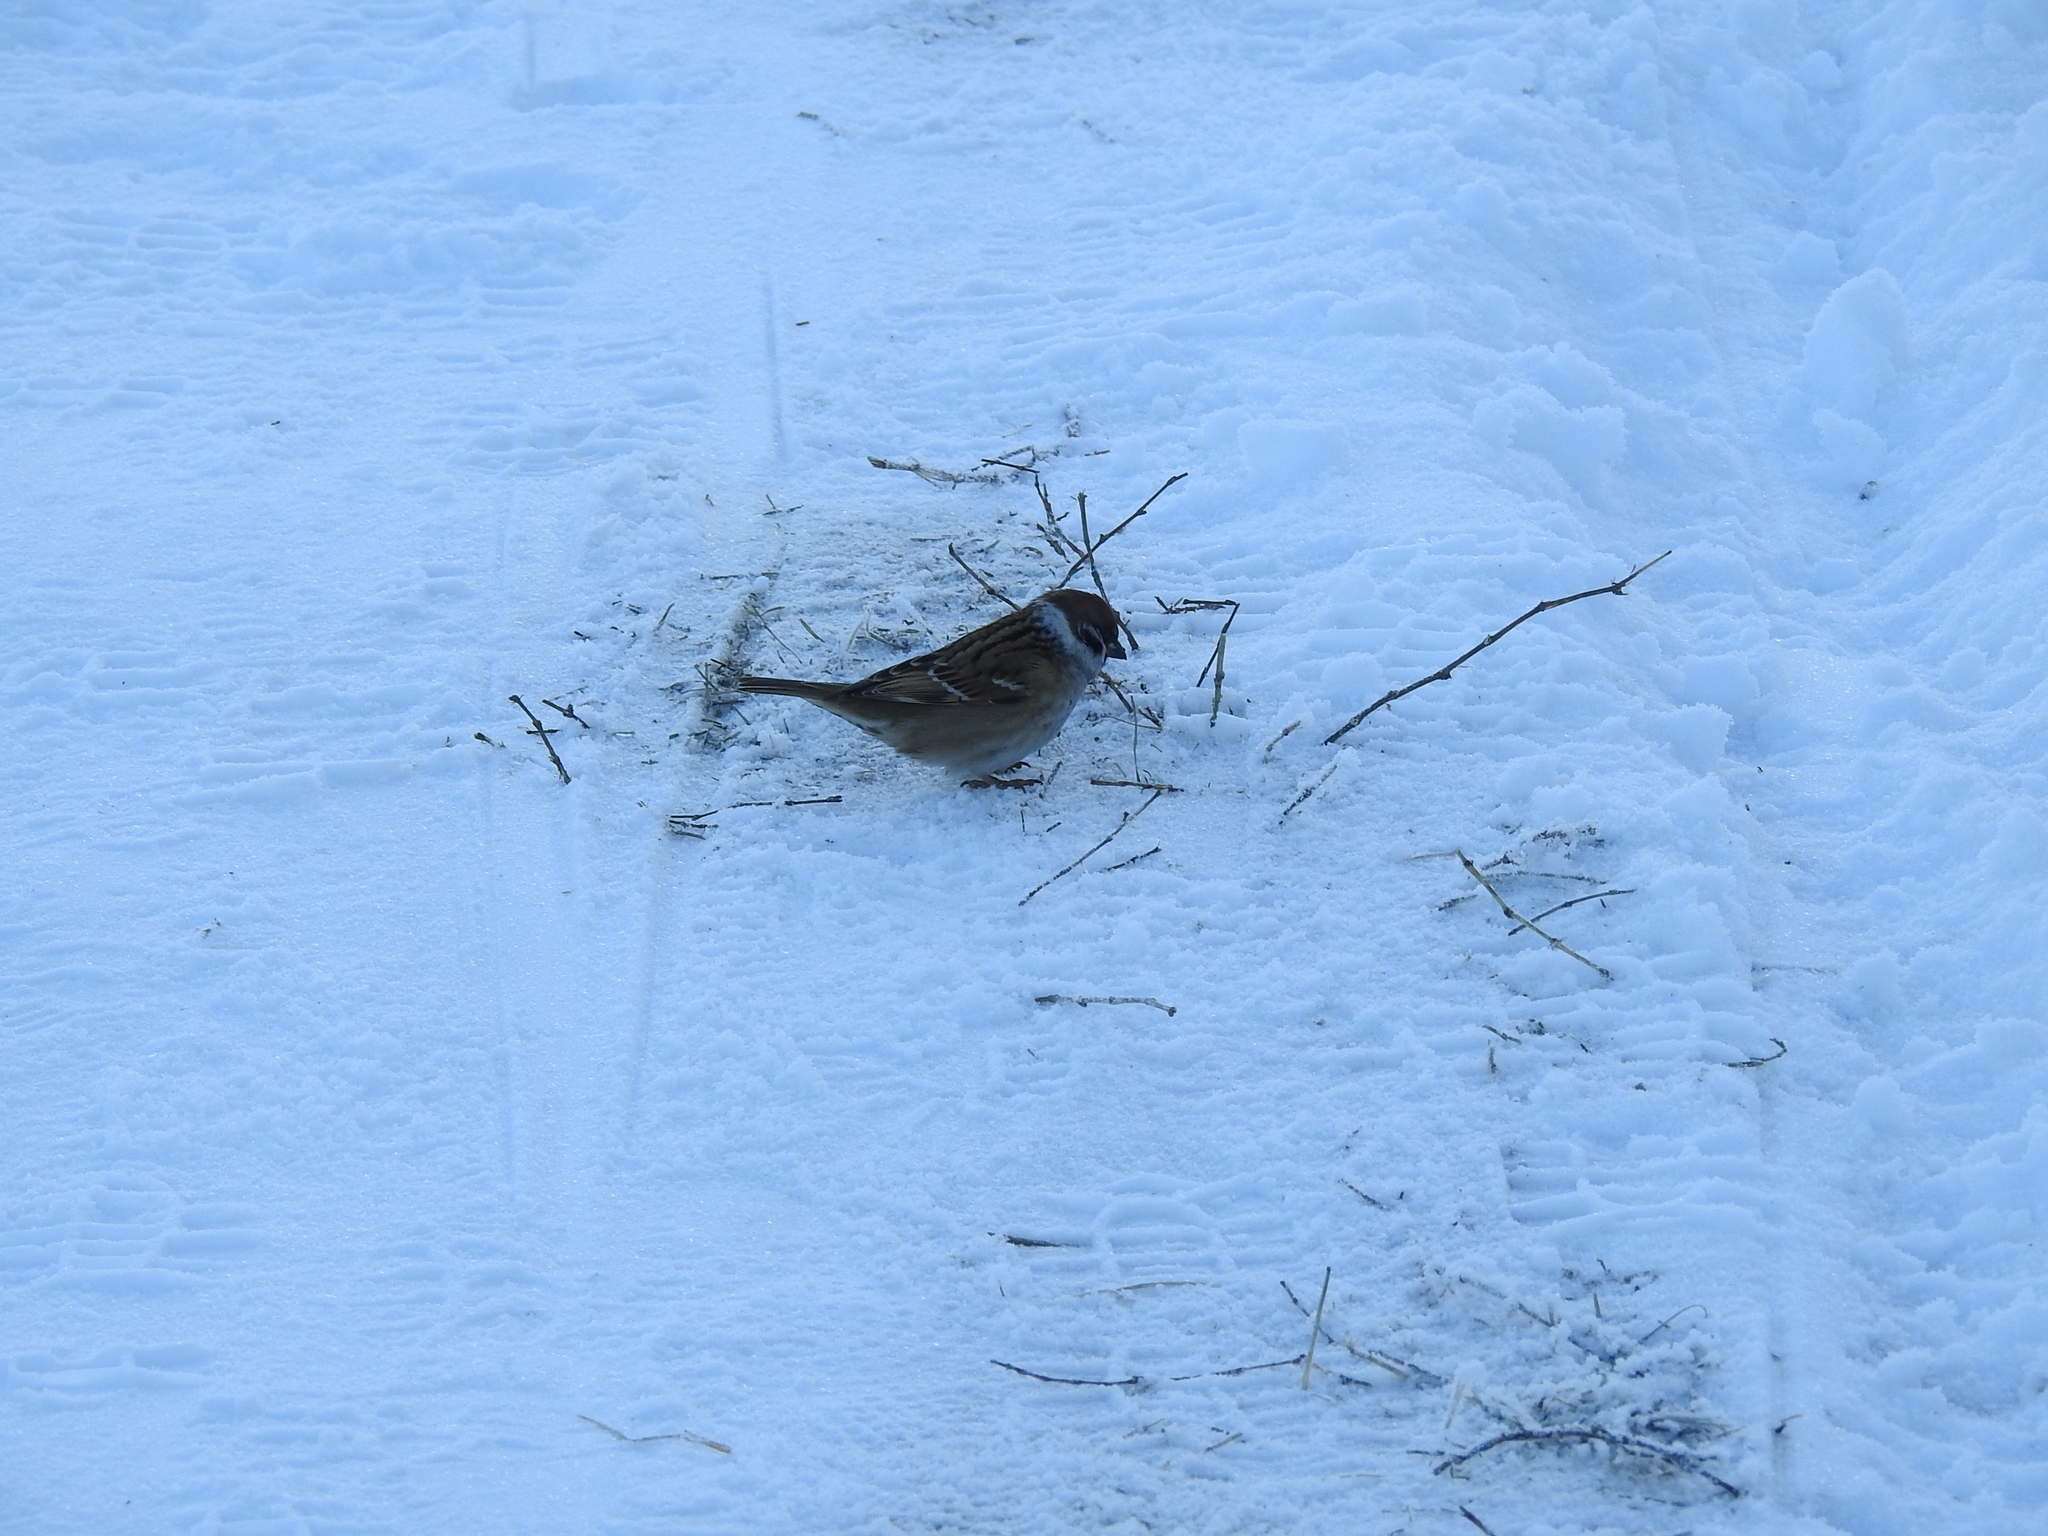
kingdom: Animalia
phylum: Chordata
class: Aves
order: Passeriformes
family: Passeridae
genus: Passer
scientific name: Passer montanus
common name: Eurasian tree sparrow
